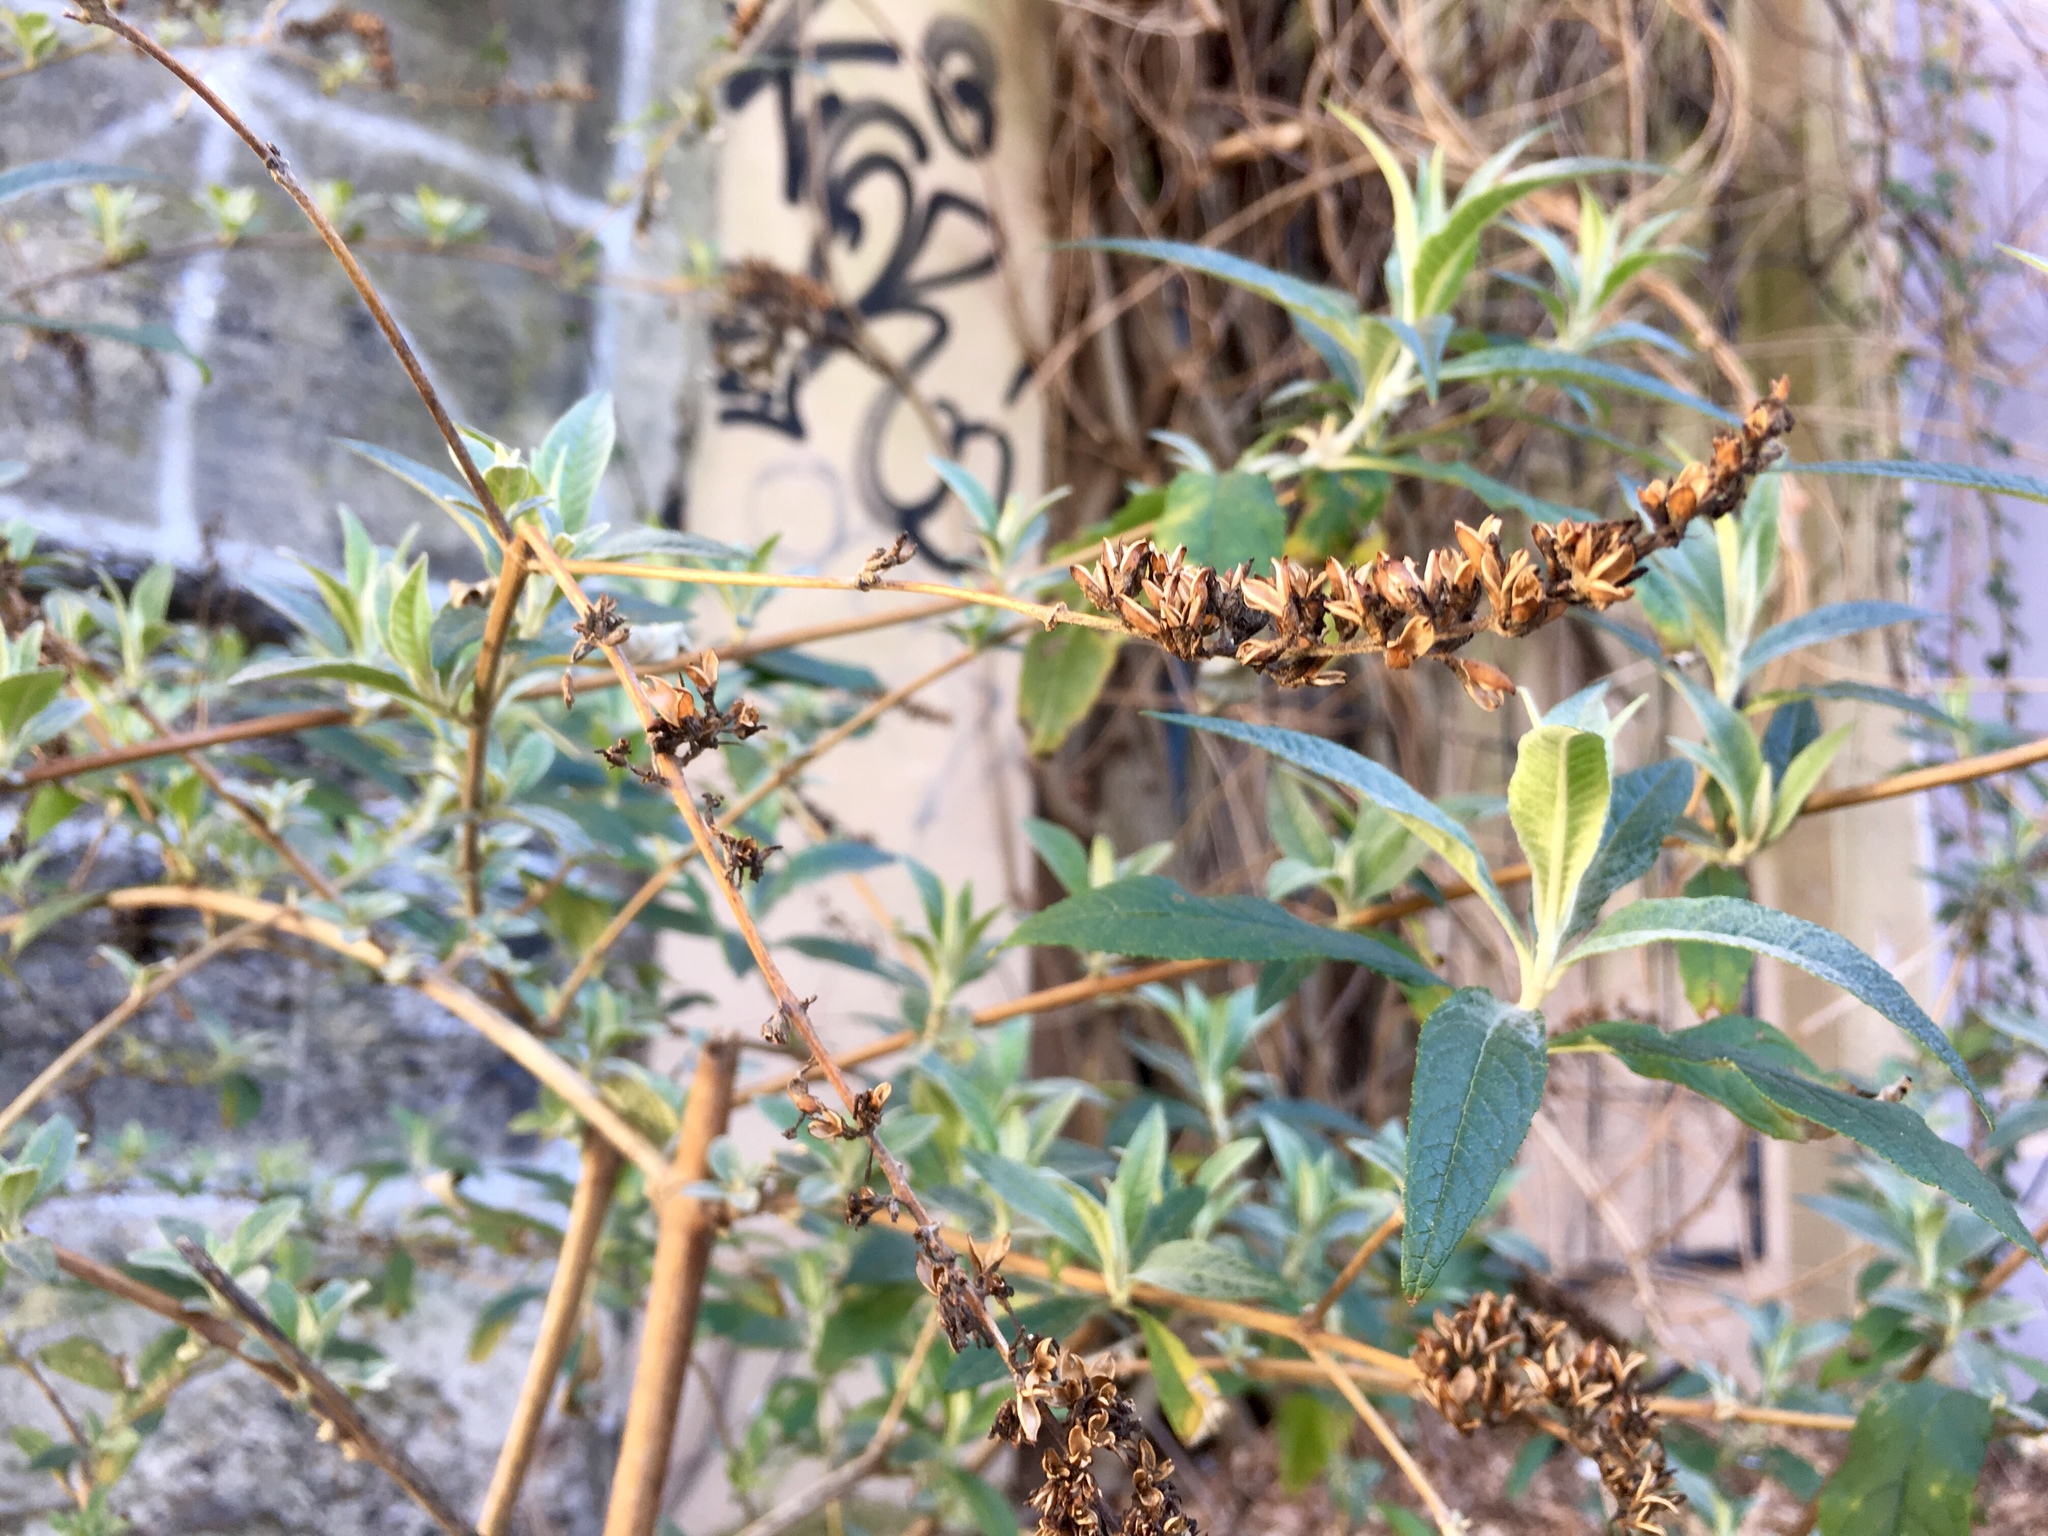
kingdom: Plantae
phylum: Tracheophyta
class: Magnoliopsida
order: Lamiales
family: Scrophulariaceae
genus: Buddleja
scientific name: Buddleja davidii
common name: Butterfly-bush
